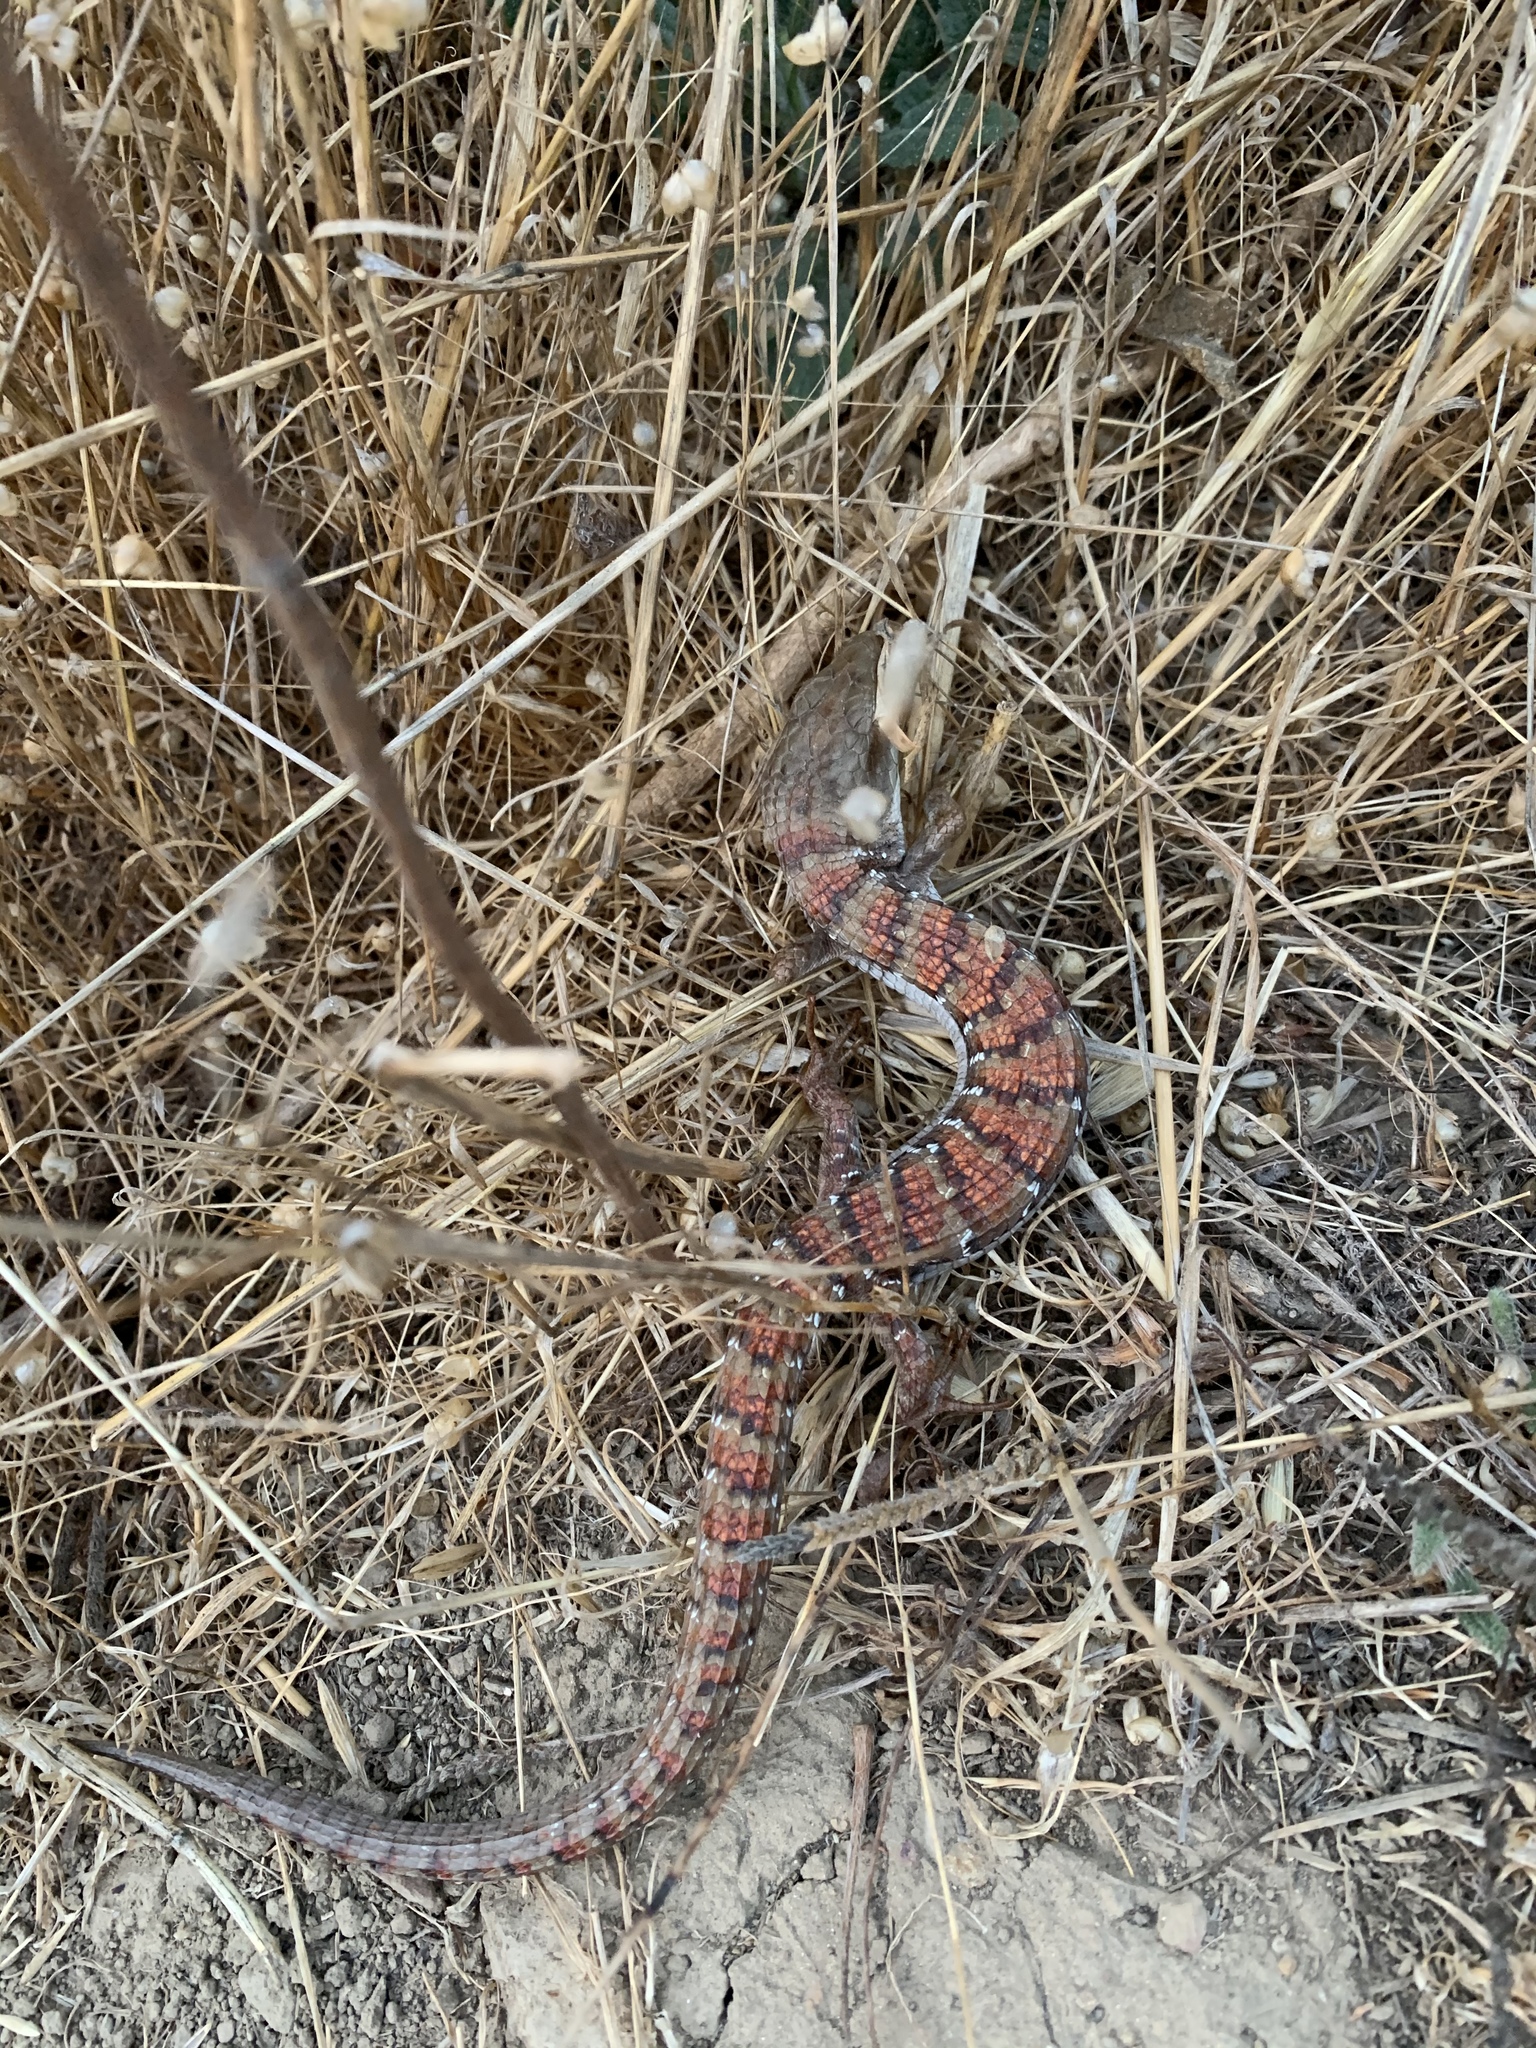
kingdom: Animalia
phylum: Chordata
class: Squamata
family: Anguidae
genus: Elgaria
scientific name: Elgaria multicarinata
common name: Southern alligator lizard
